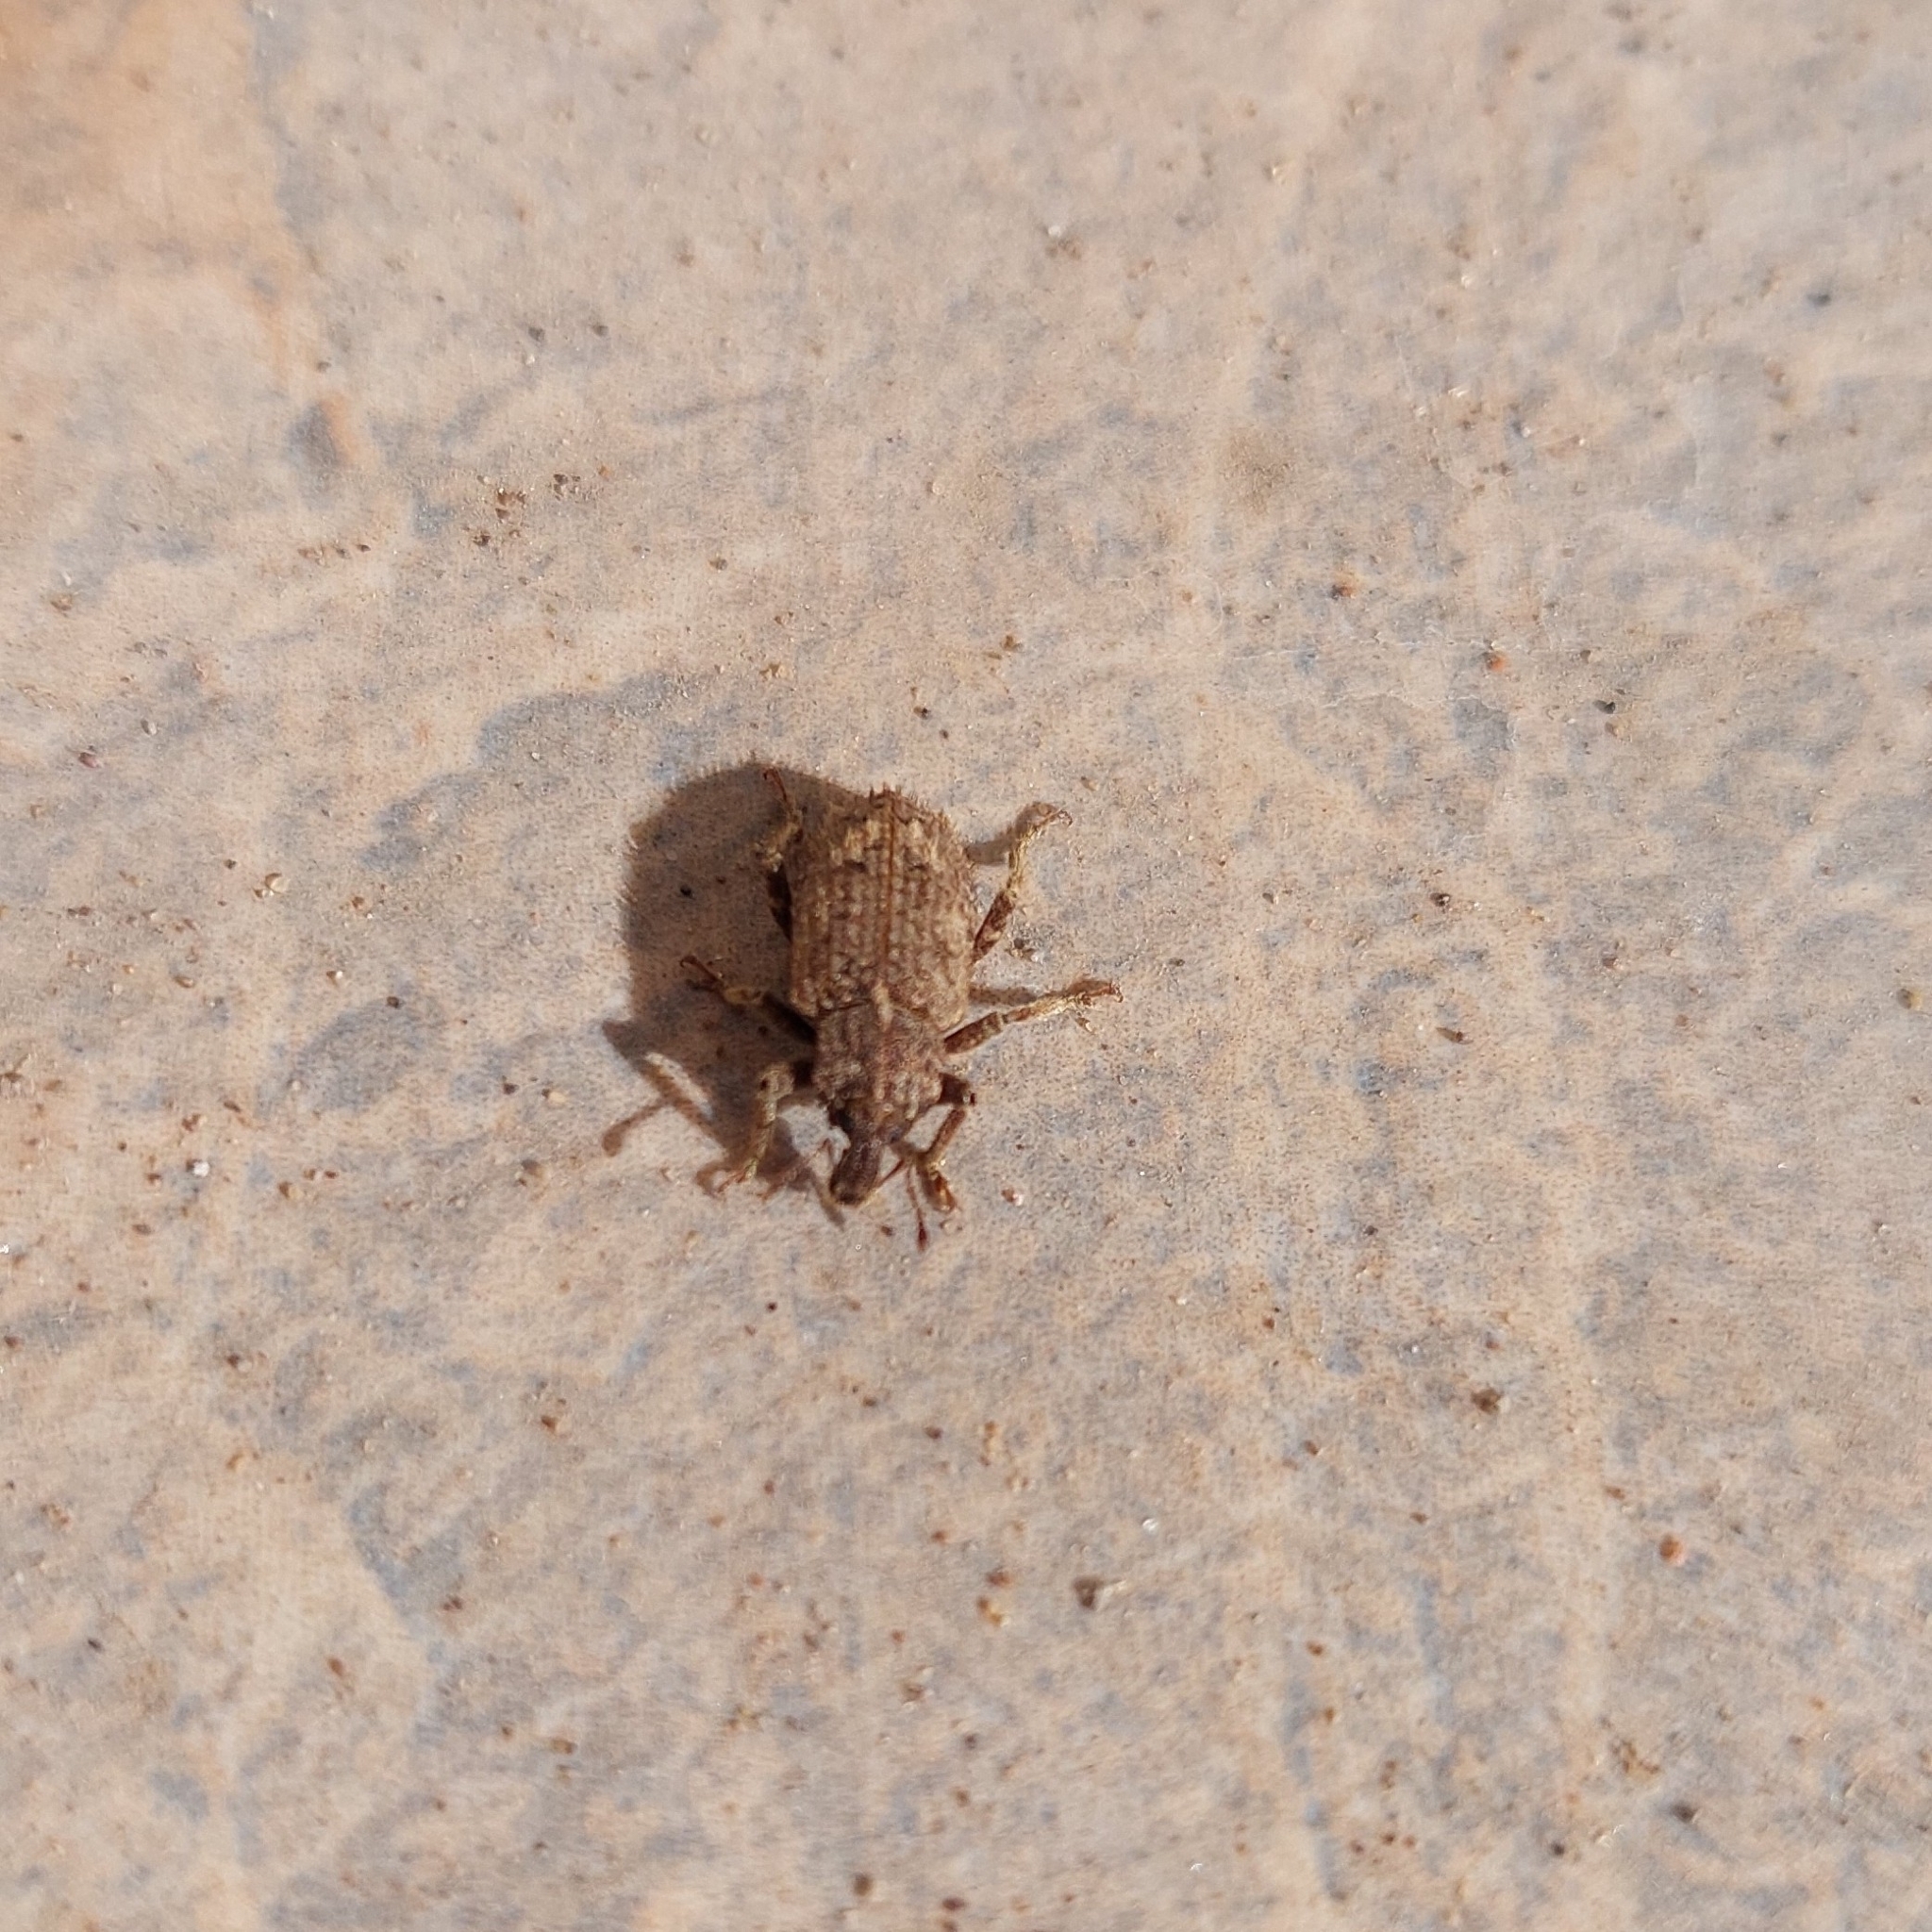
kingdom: Animalia
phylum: Arthropoda
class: Insecta
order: Coleoptera
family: Curculionidae
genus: Listroderes
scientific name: Listroderes difficilis
